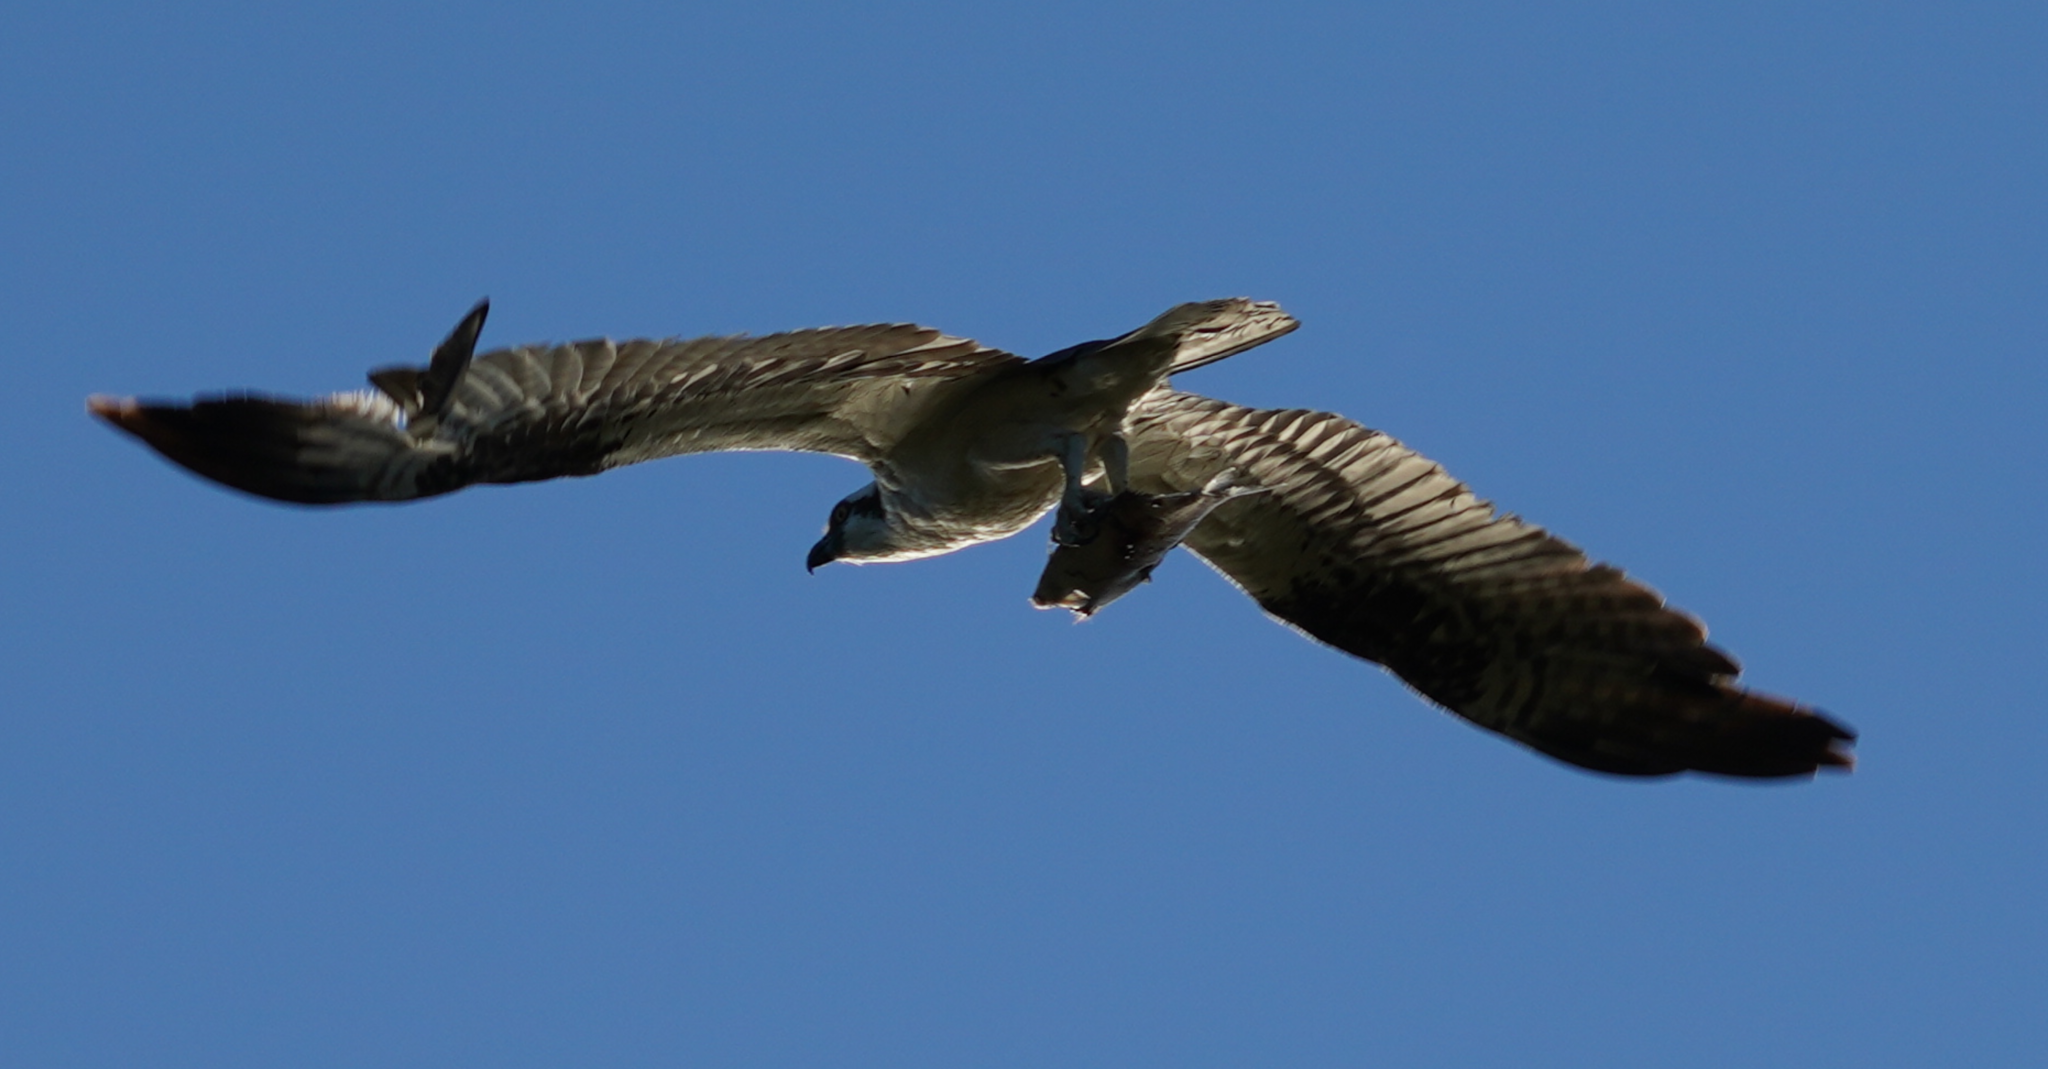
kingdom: Animalia
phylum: Chordata
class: Aves
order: Accipitriformes
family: Pandionidae
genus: Pandion
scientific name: Pandion haliaetus
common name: Osprey
